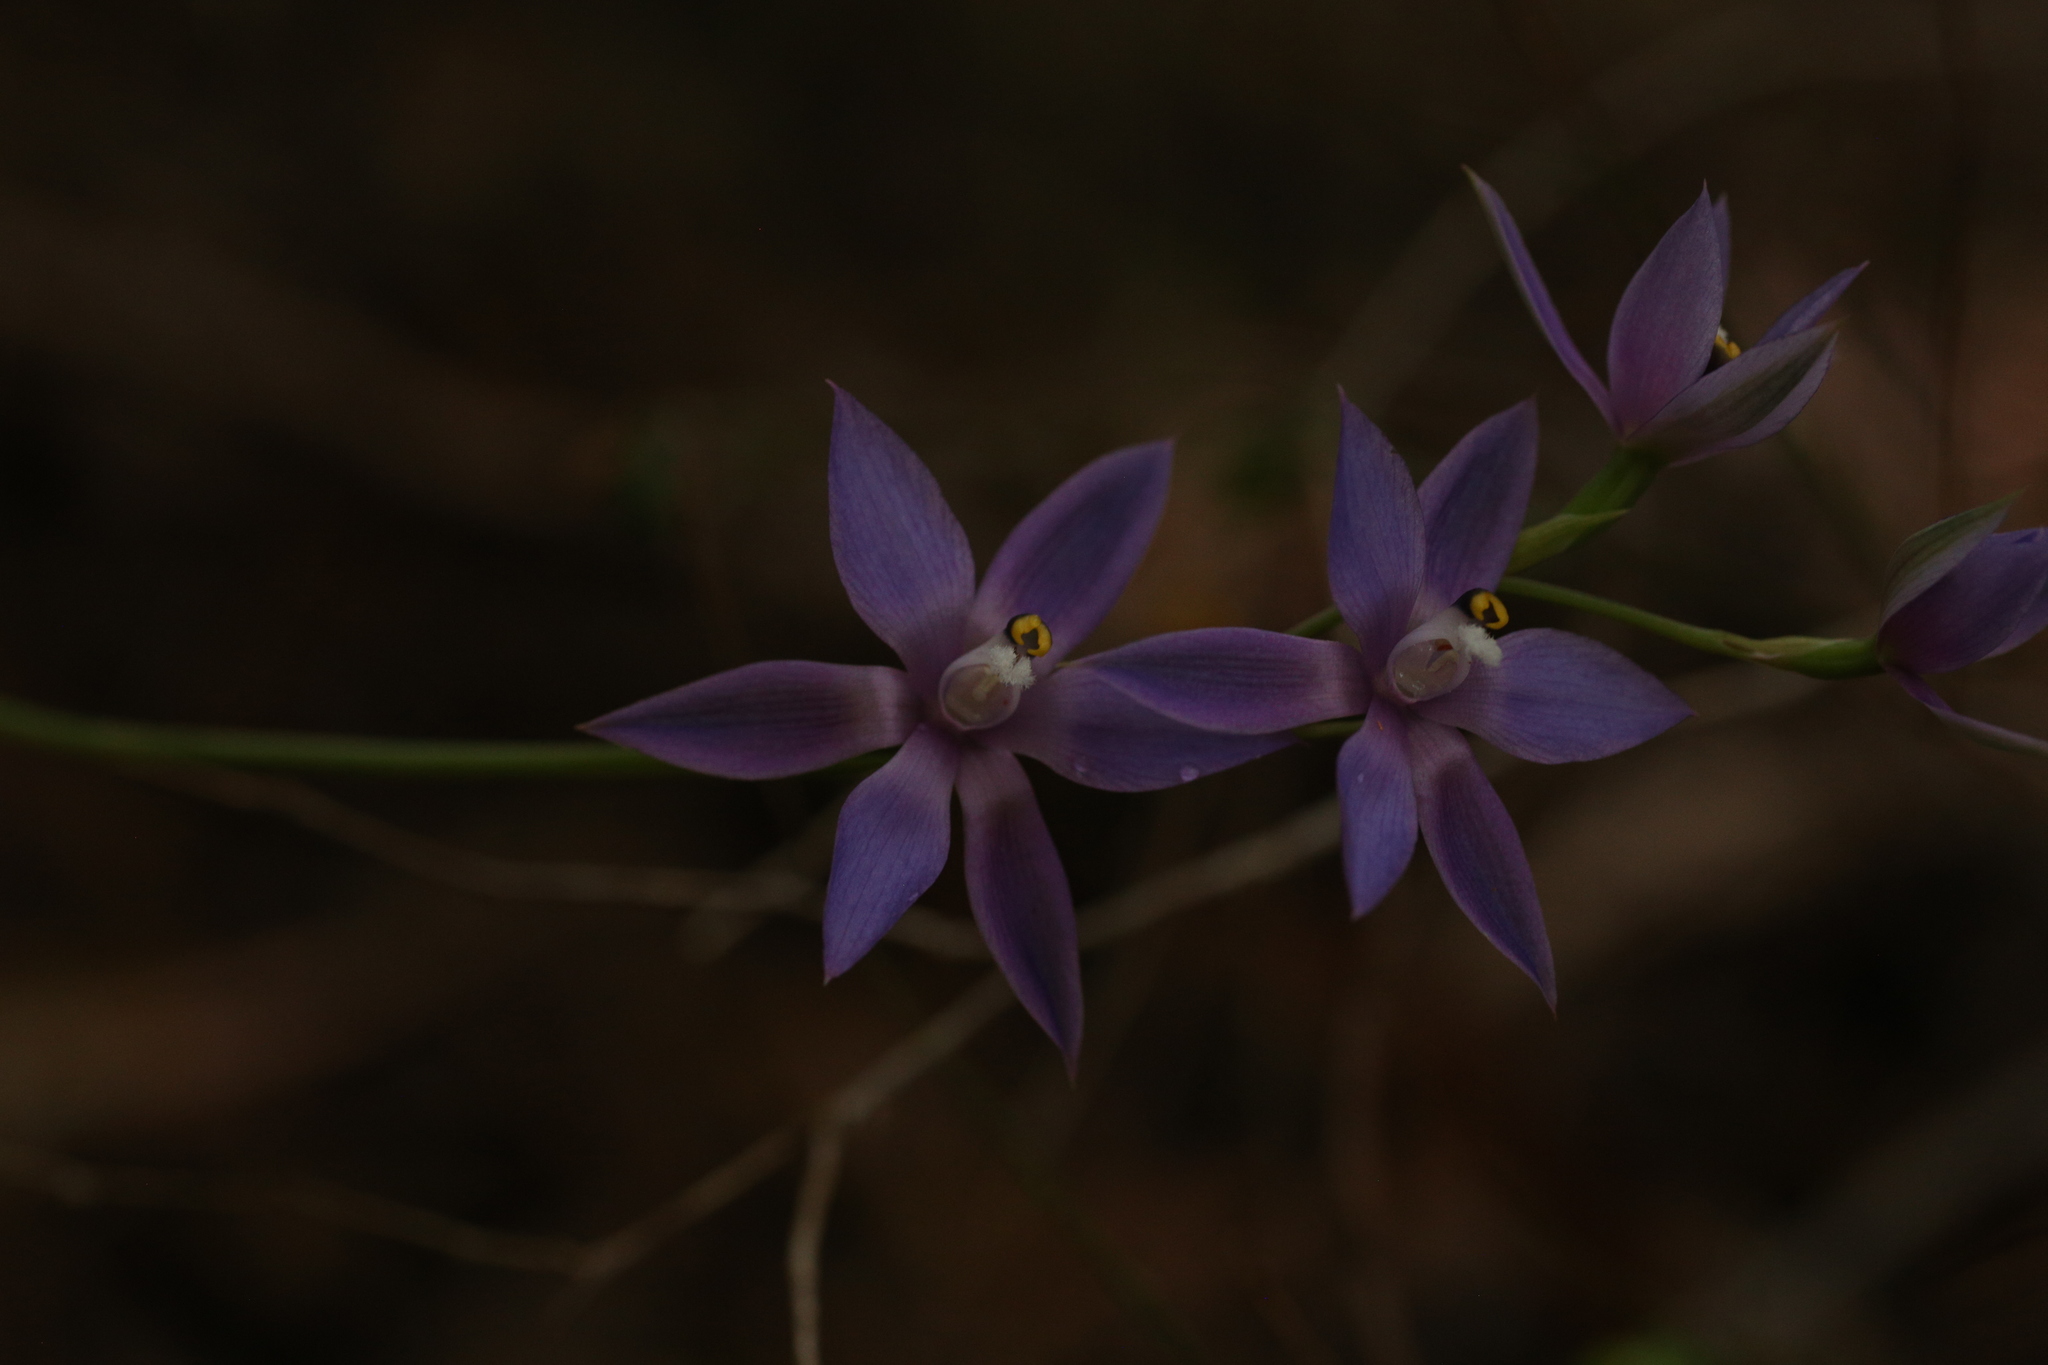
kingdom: Plantae
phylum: Tracheophyta
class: Liliopsida
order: Asparagales
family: Orchidaceae
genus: Thelymitra
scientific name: Thelymitra macrophylla
